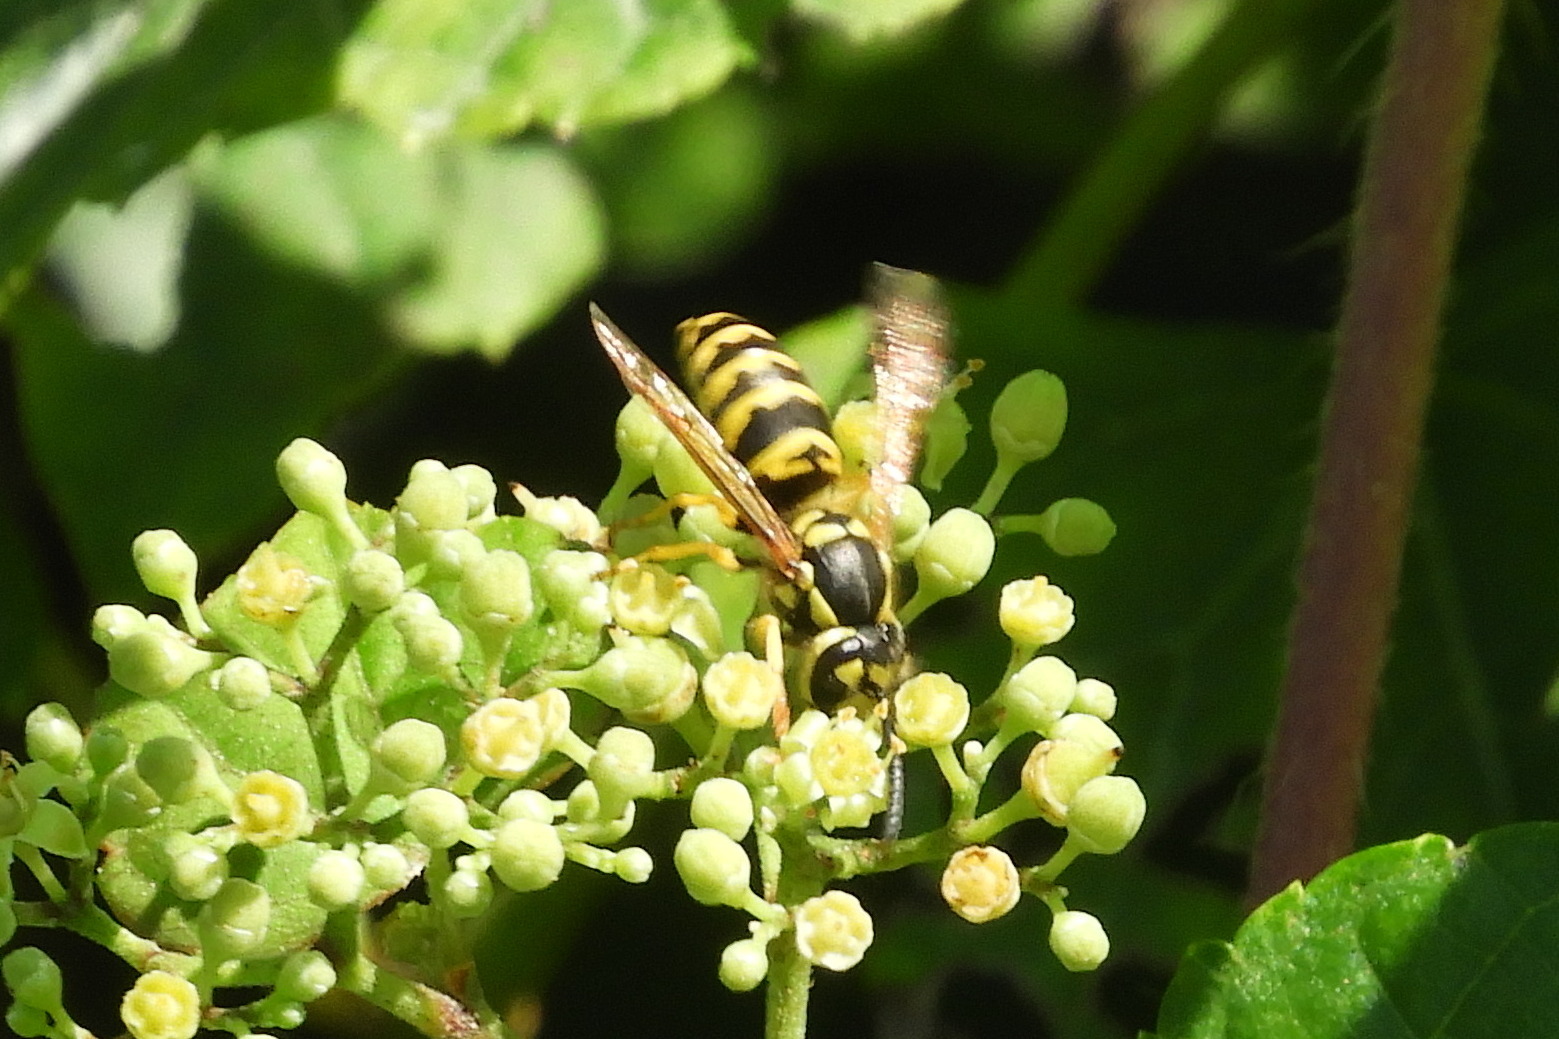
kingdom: Animalia
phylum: Arthropoda
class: Insecta
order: Hymenoptera
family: Vespidae
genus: Vespula
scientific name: Vespula maculifrons
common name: Eastern yellowjacket
